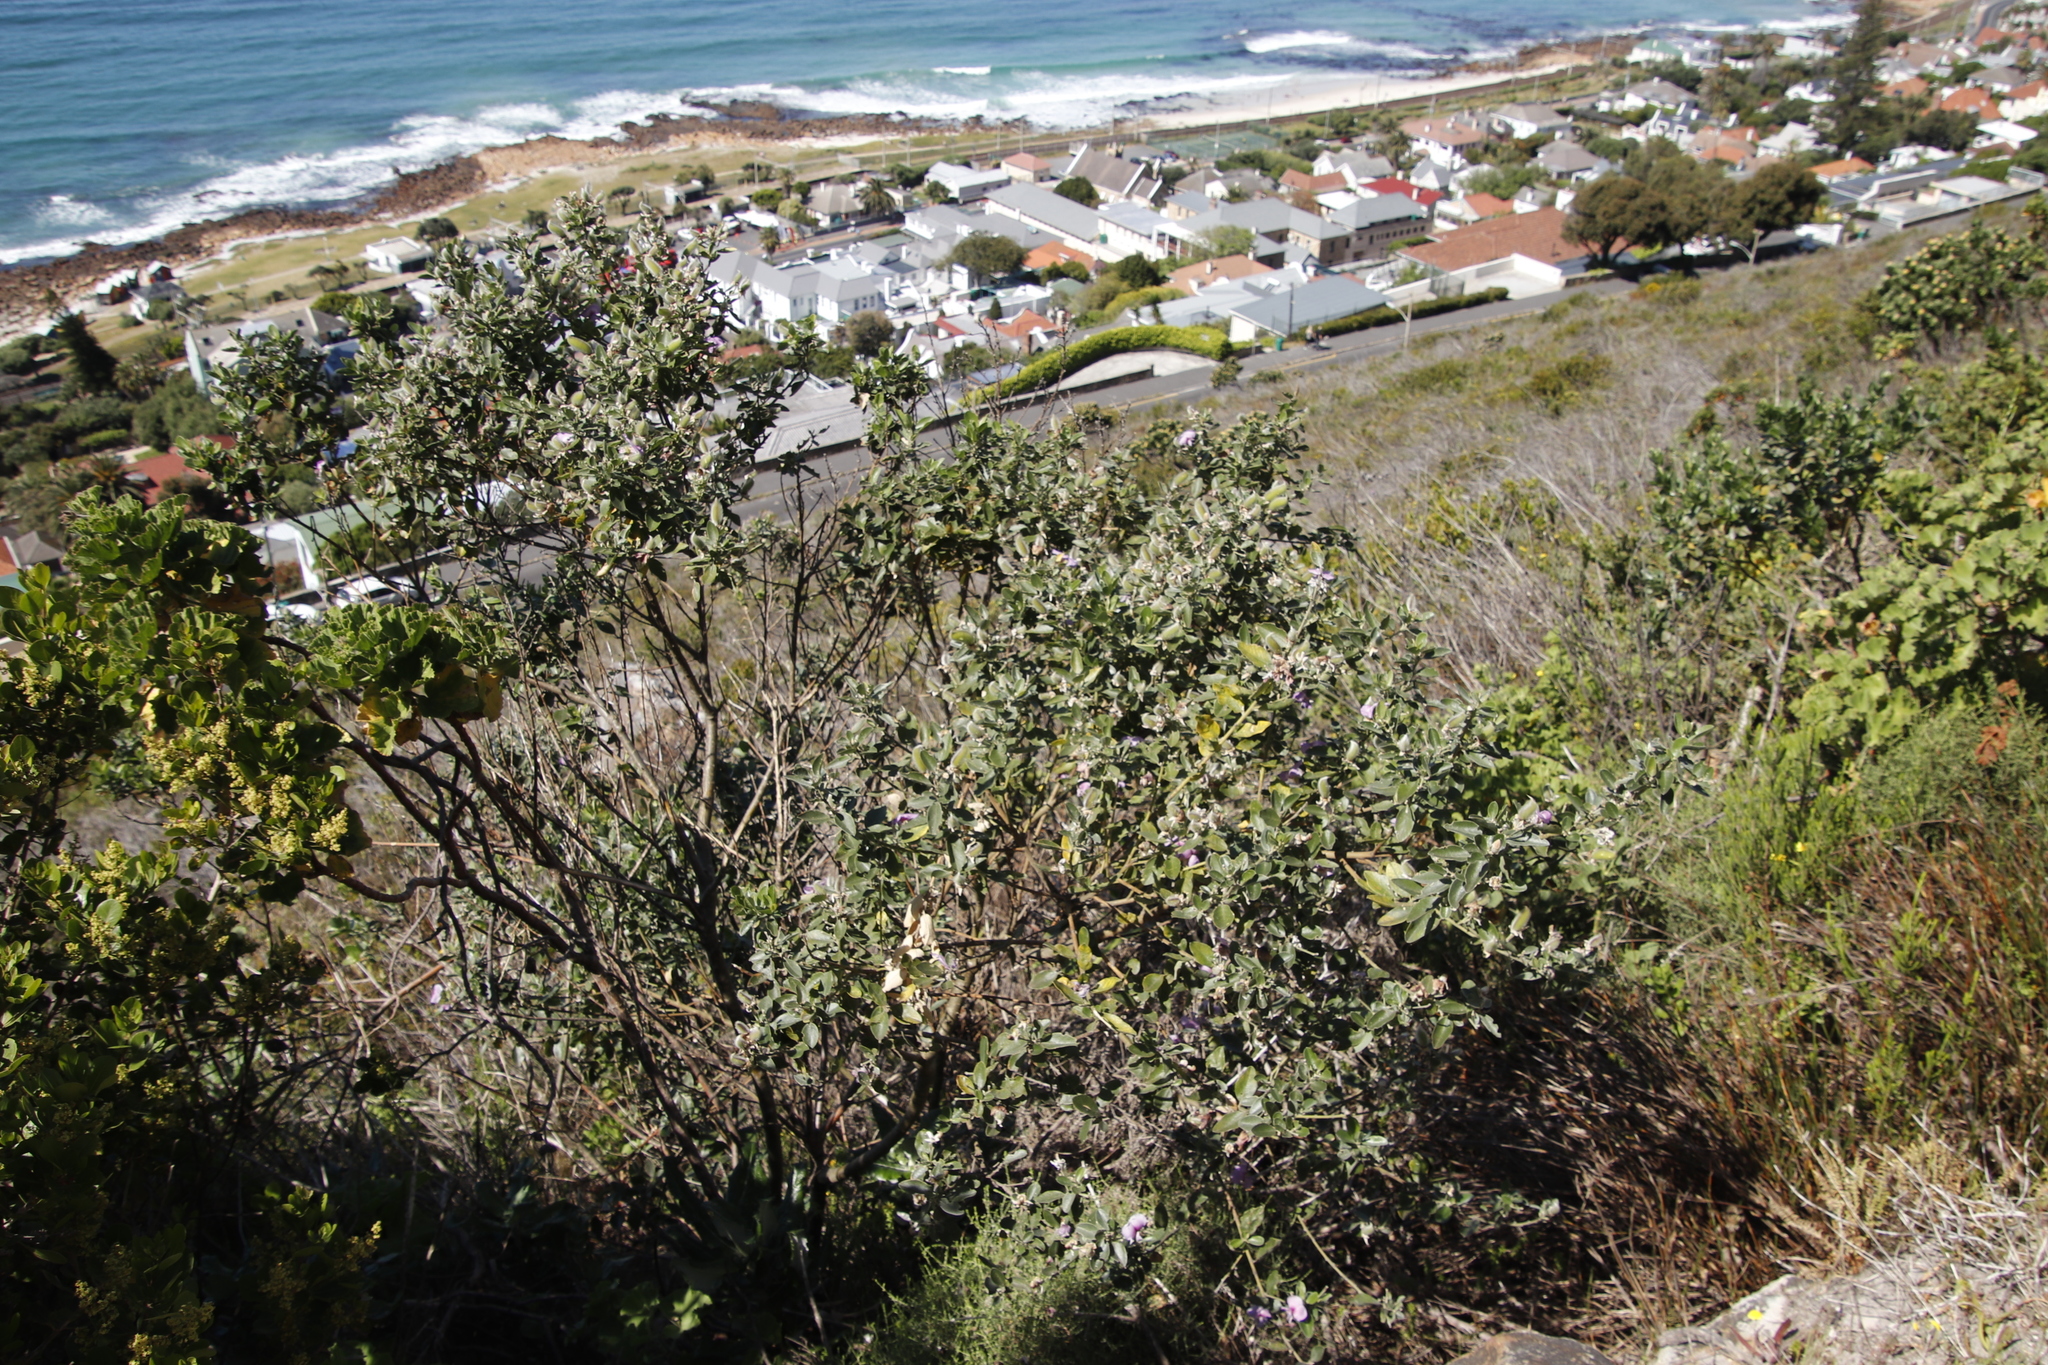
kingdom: Plantae
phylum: Tracheophyta
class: Magnoliopsida
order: Fabales
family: Fabaceae
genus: Podalyria
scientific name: Podalyria calyptrata
